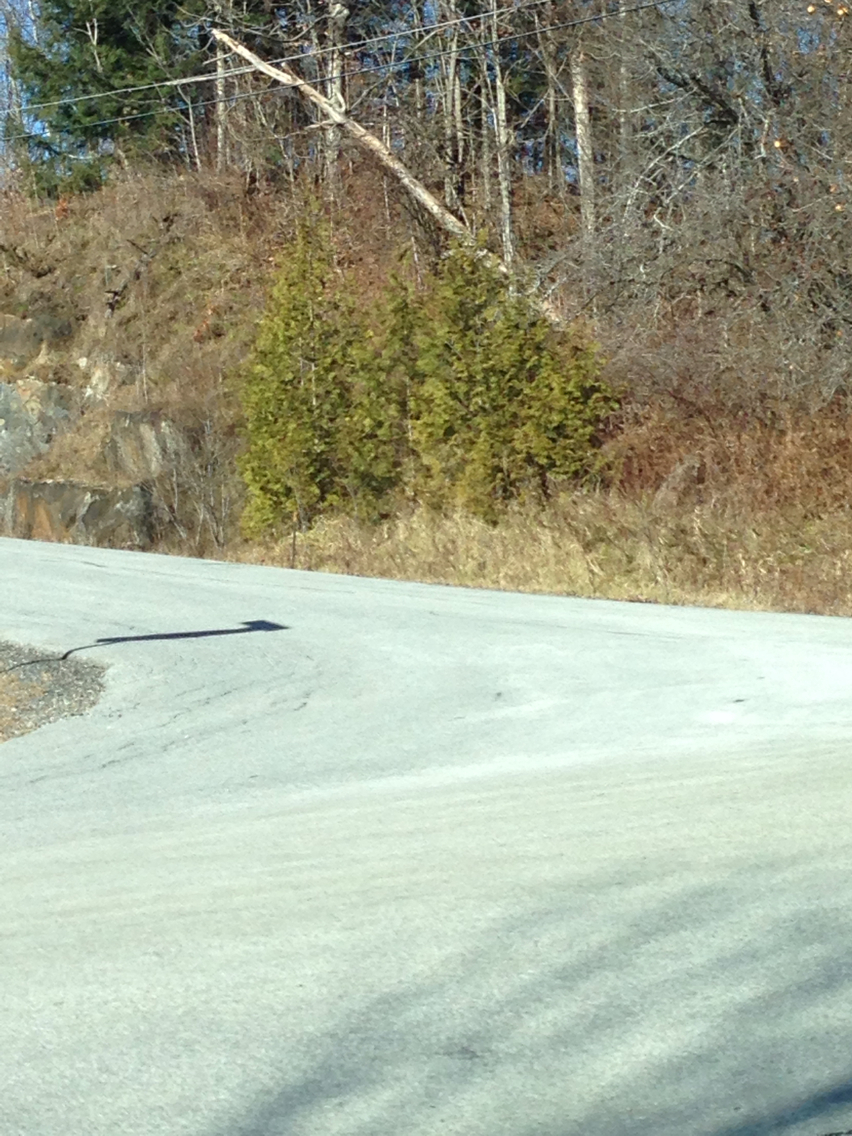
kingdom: Plantae
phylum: Tracheophyta
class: Pinopsida
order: Pinales
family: Cupressaceae
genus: Thuja
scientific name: Thuja occidentalis
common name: Northern white-cedar
